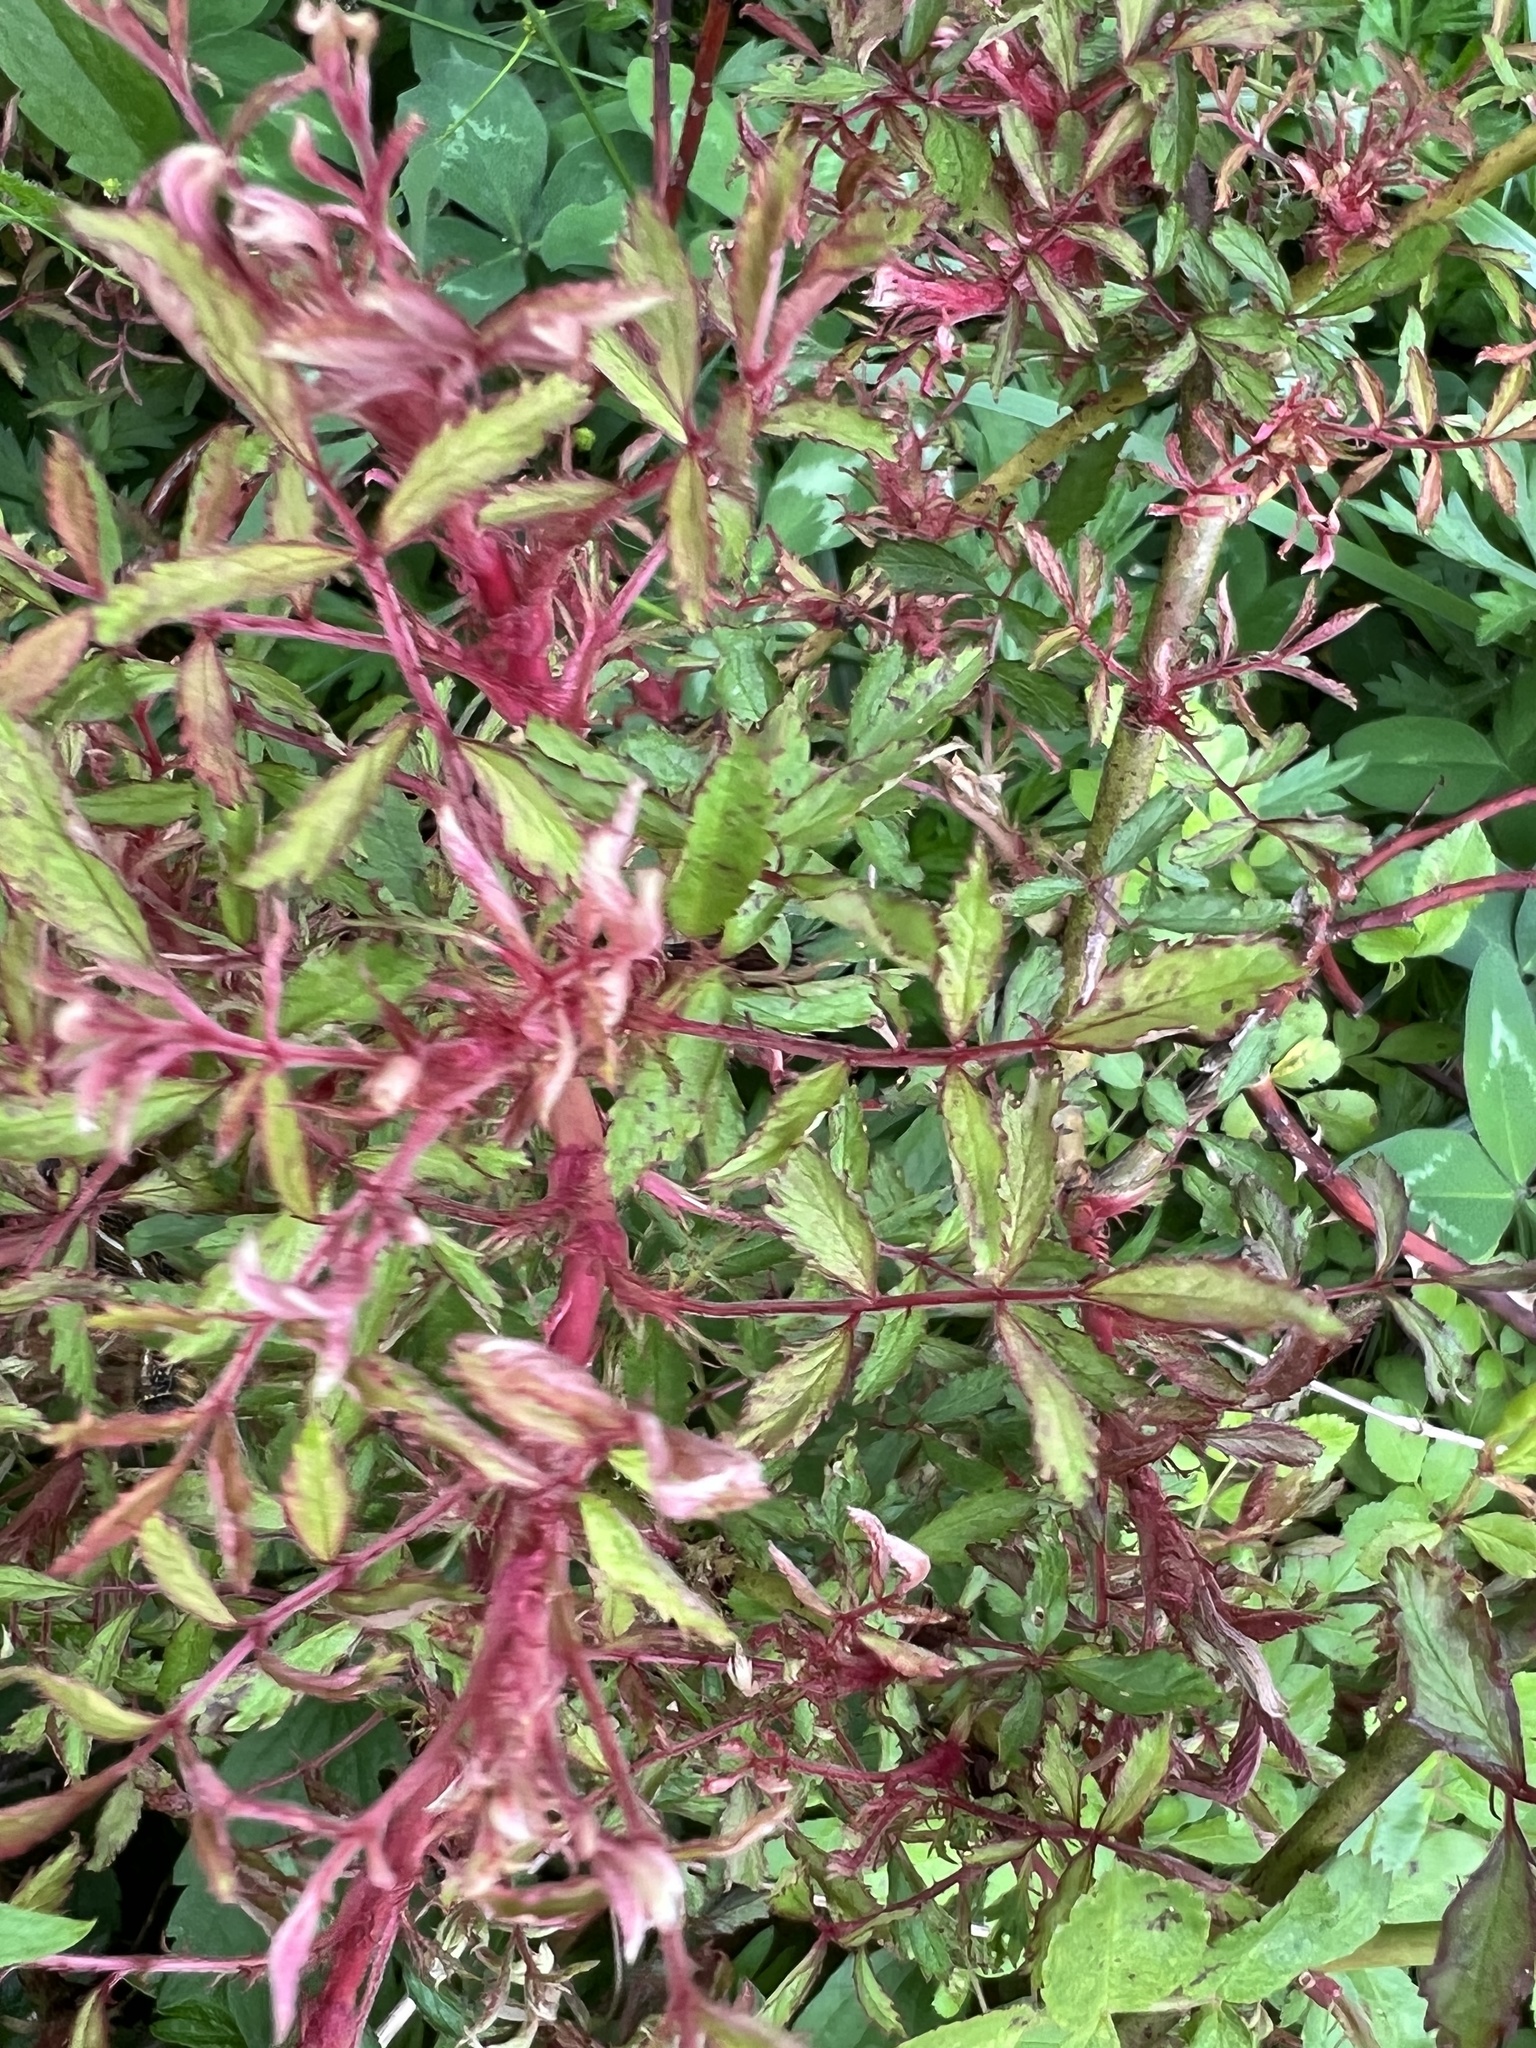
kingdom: Viruses
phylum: Negarnaviricota
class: Ellioviricetes
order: Bunyavirales
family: Fimoviridae
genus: Emaravirus
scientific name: Emaravirus rosae
